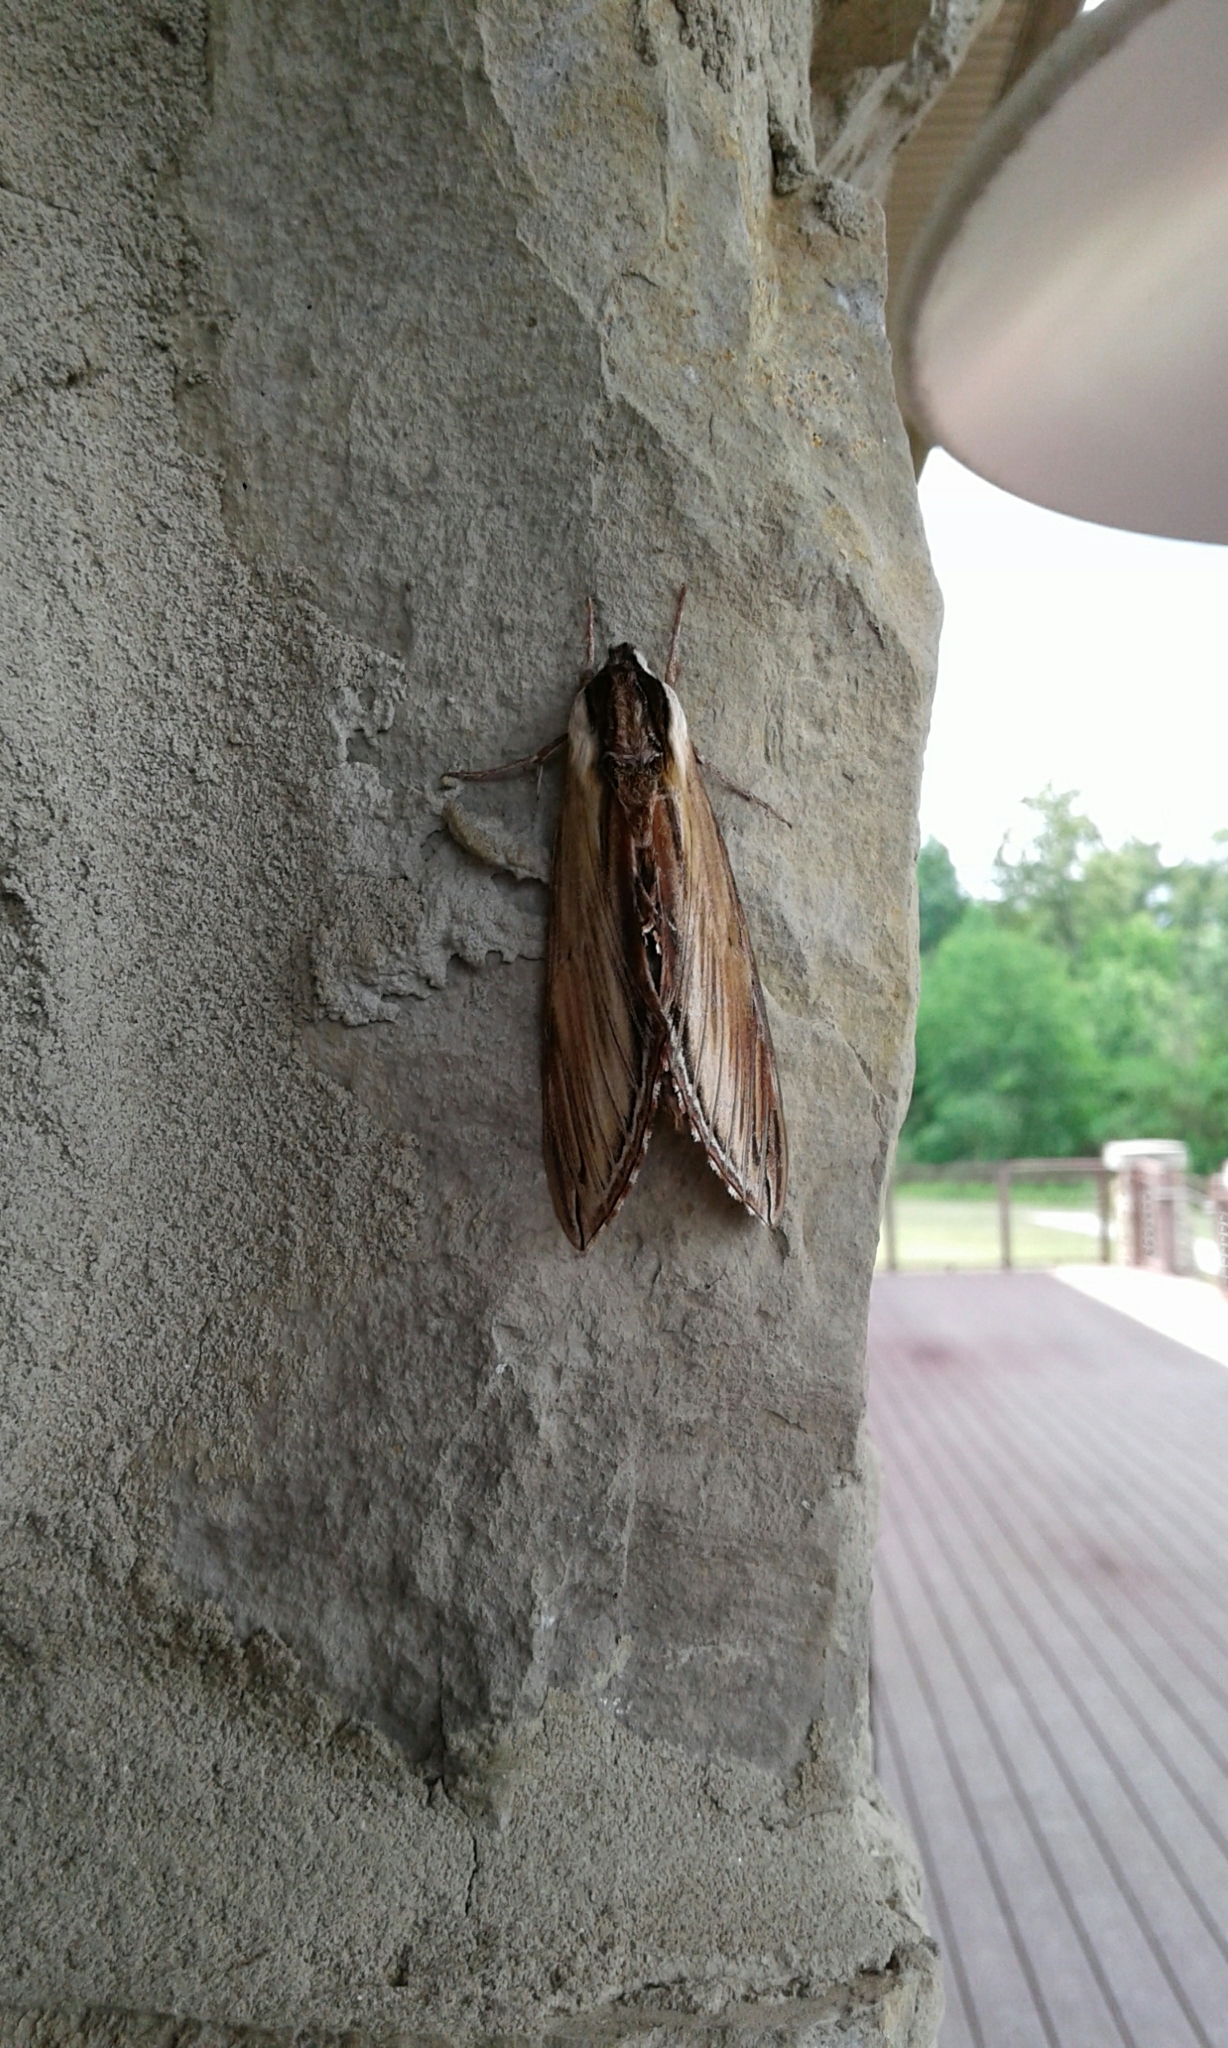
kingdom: Animalia
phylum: Arthropoda
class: Insecta
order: Lepidoptera
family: Sphingidae
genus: Sphinx
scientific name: Sphinx kalmiae
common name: Laurel sphinx
